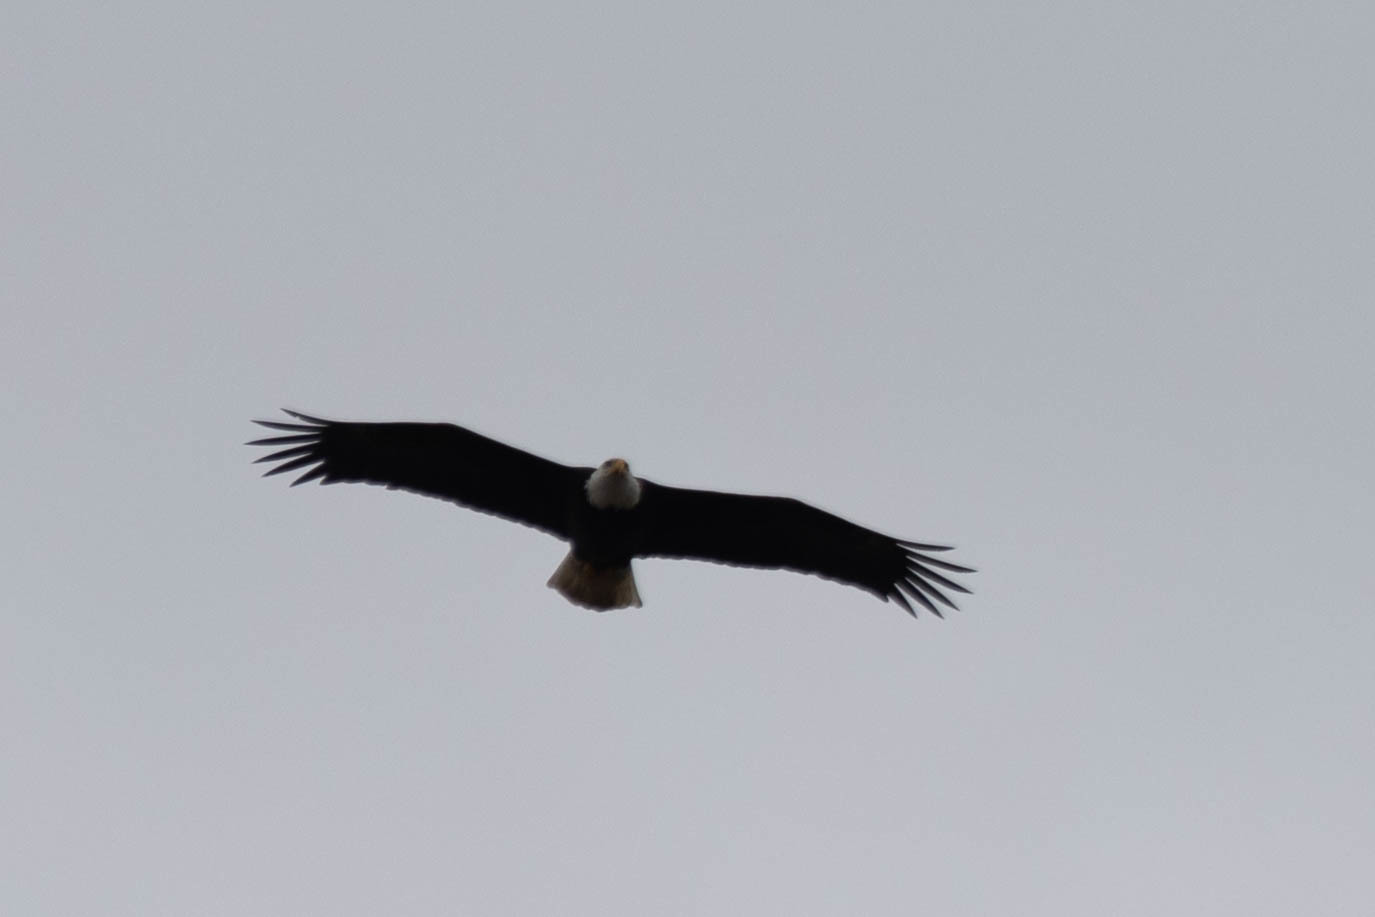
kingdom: Animalia
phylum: Chordata
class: Aves
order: Accipitriformes
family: Accipitridae
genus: Haliaeetus
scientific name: Haliaeetus leucocephalus
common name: Bald eagle
